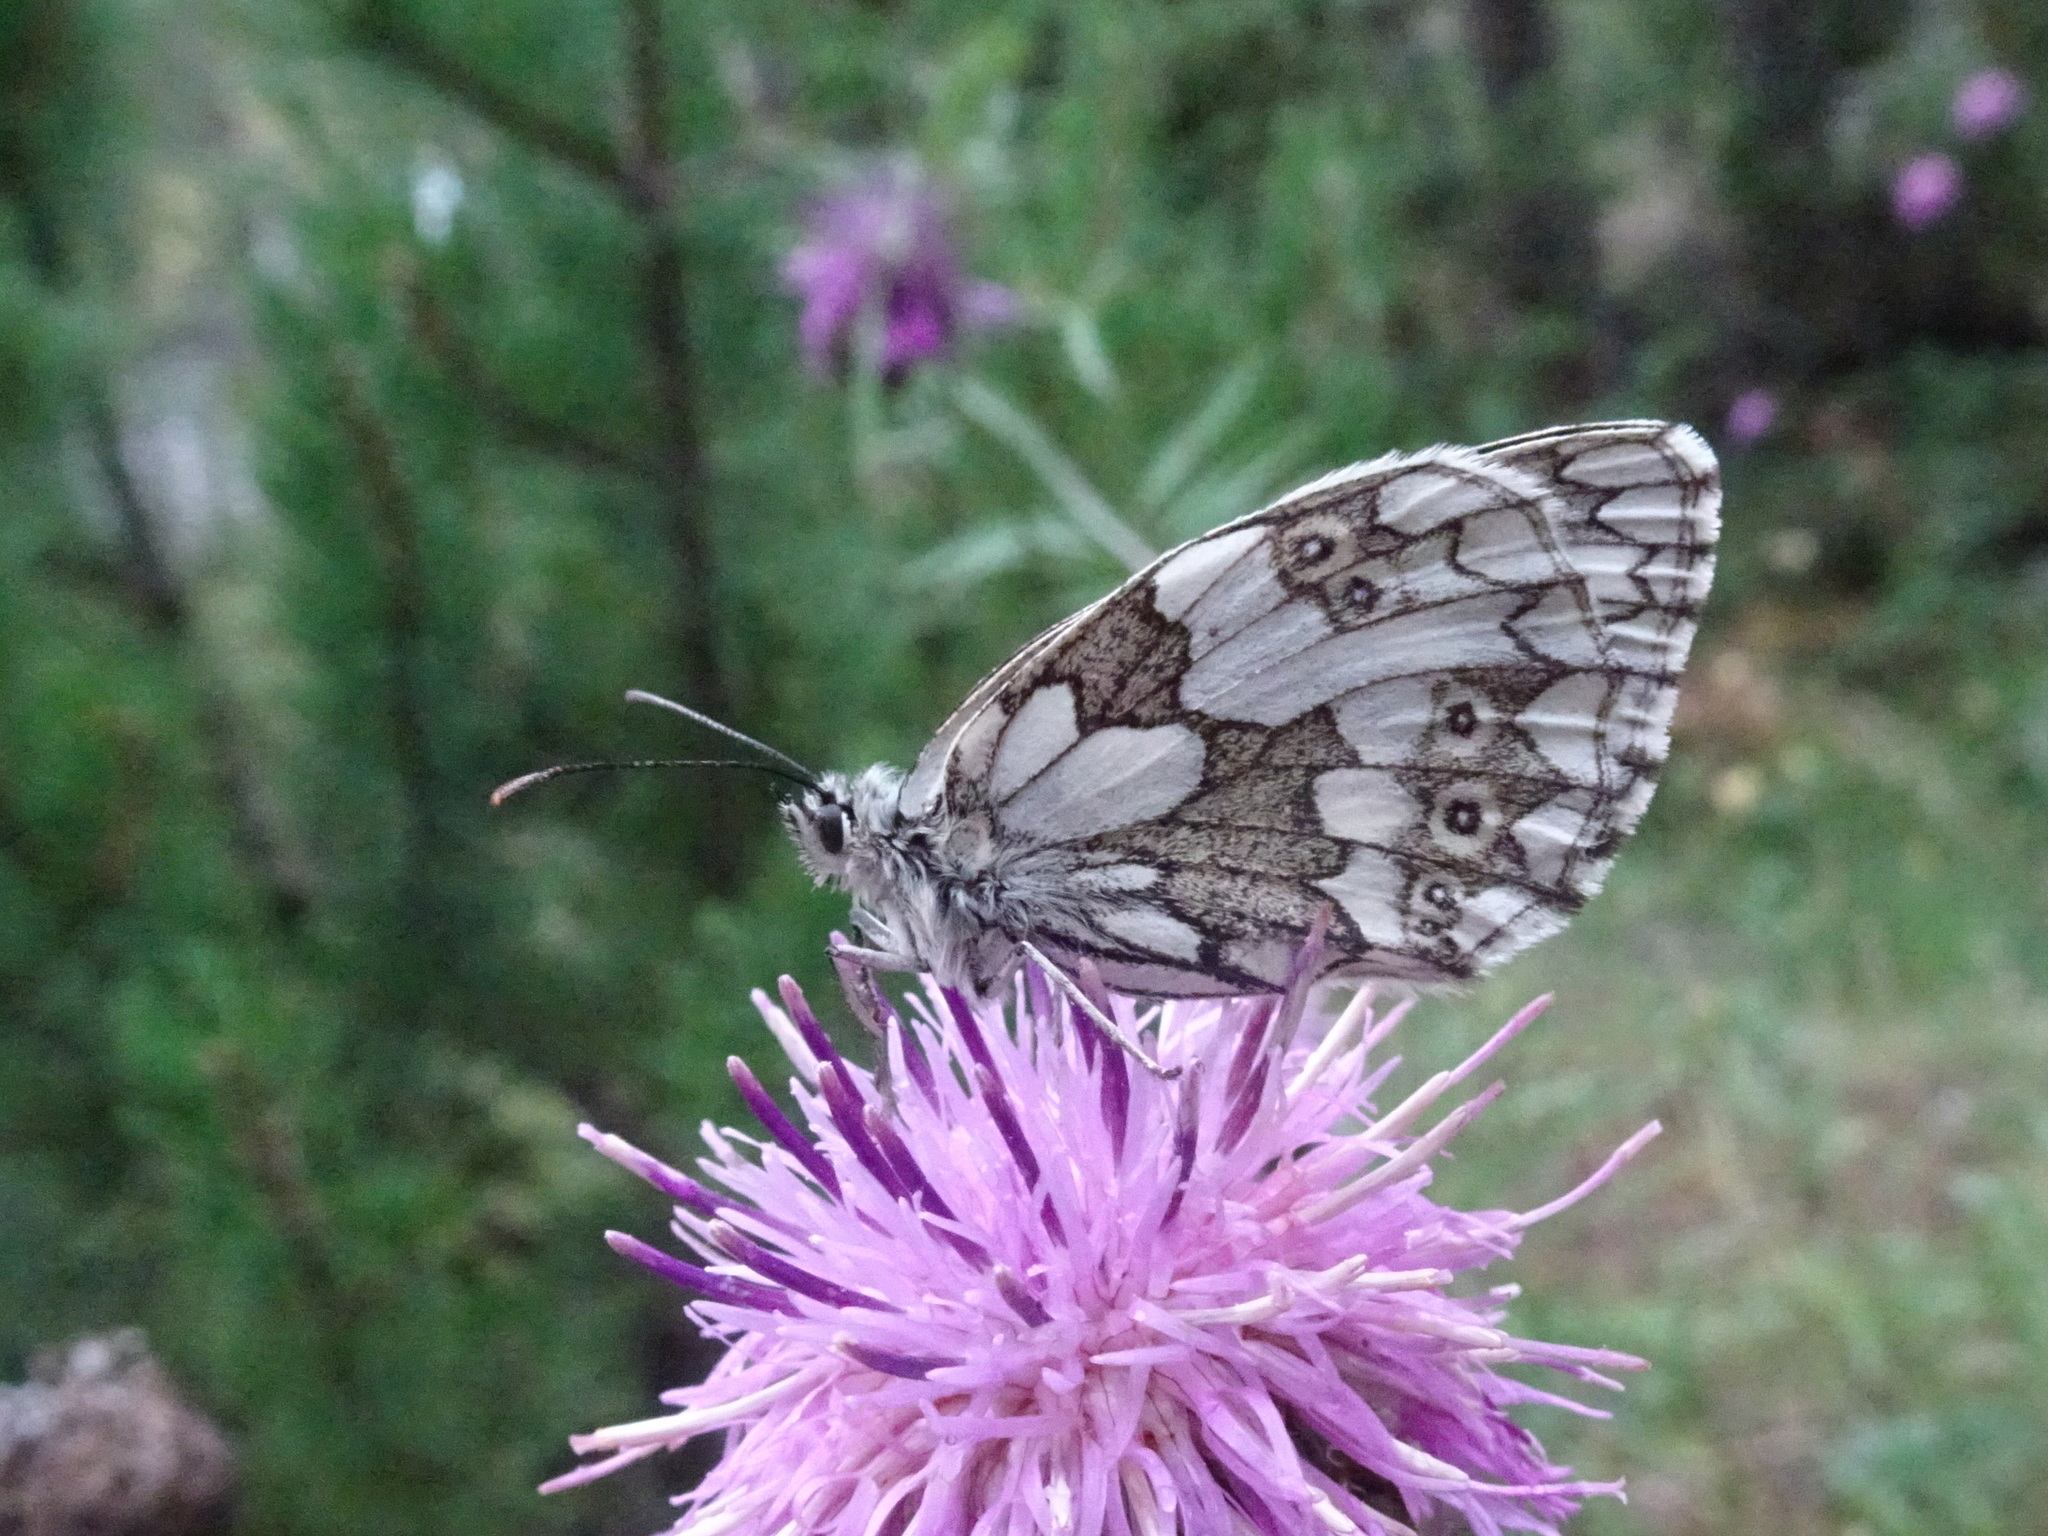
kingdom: Animalia
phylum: Arthropoda
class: Insecta
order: Lepidoptera
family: Nymphalidae
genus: Melanargia
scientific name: Melanargia galathea
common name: Marbled white
